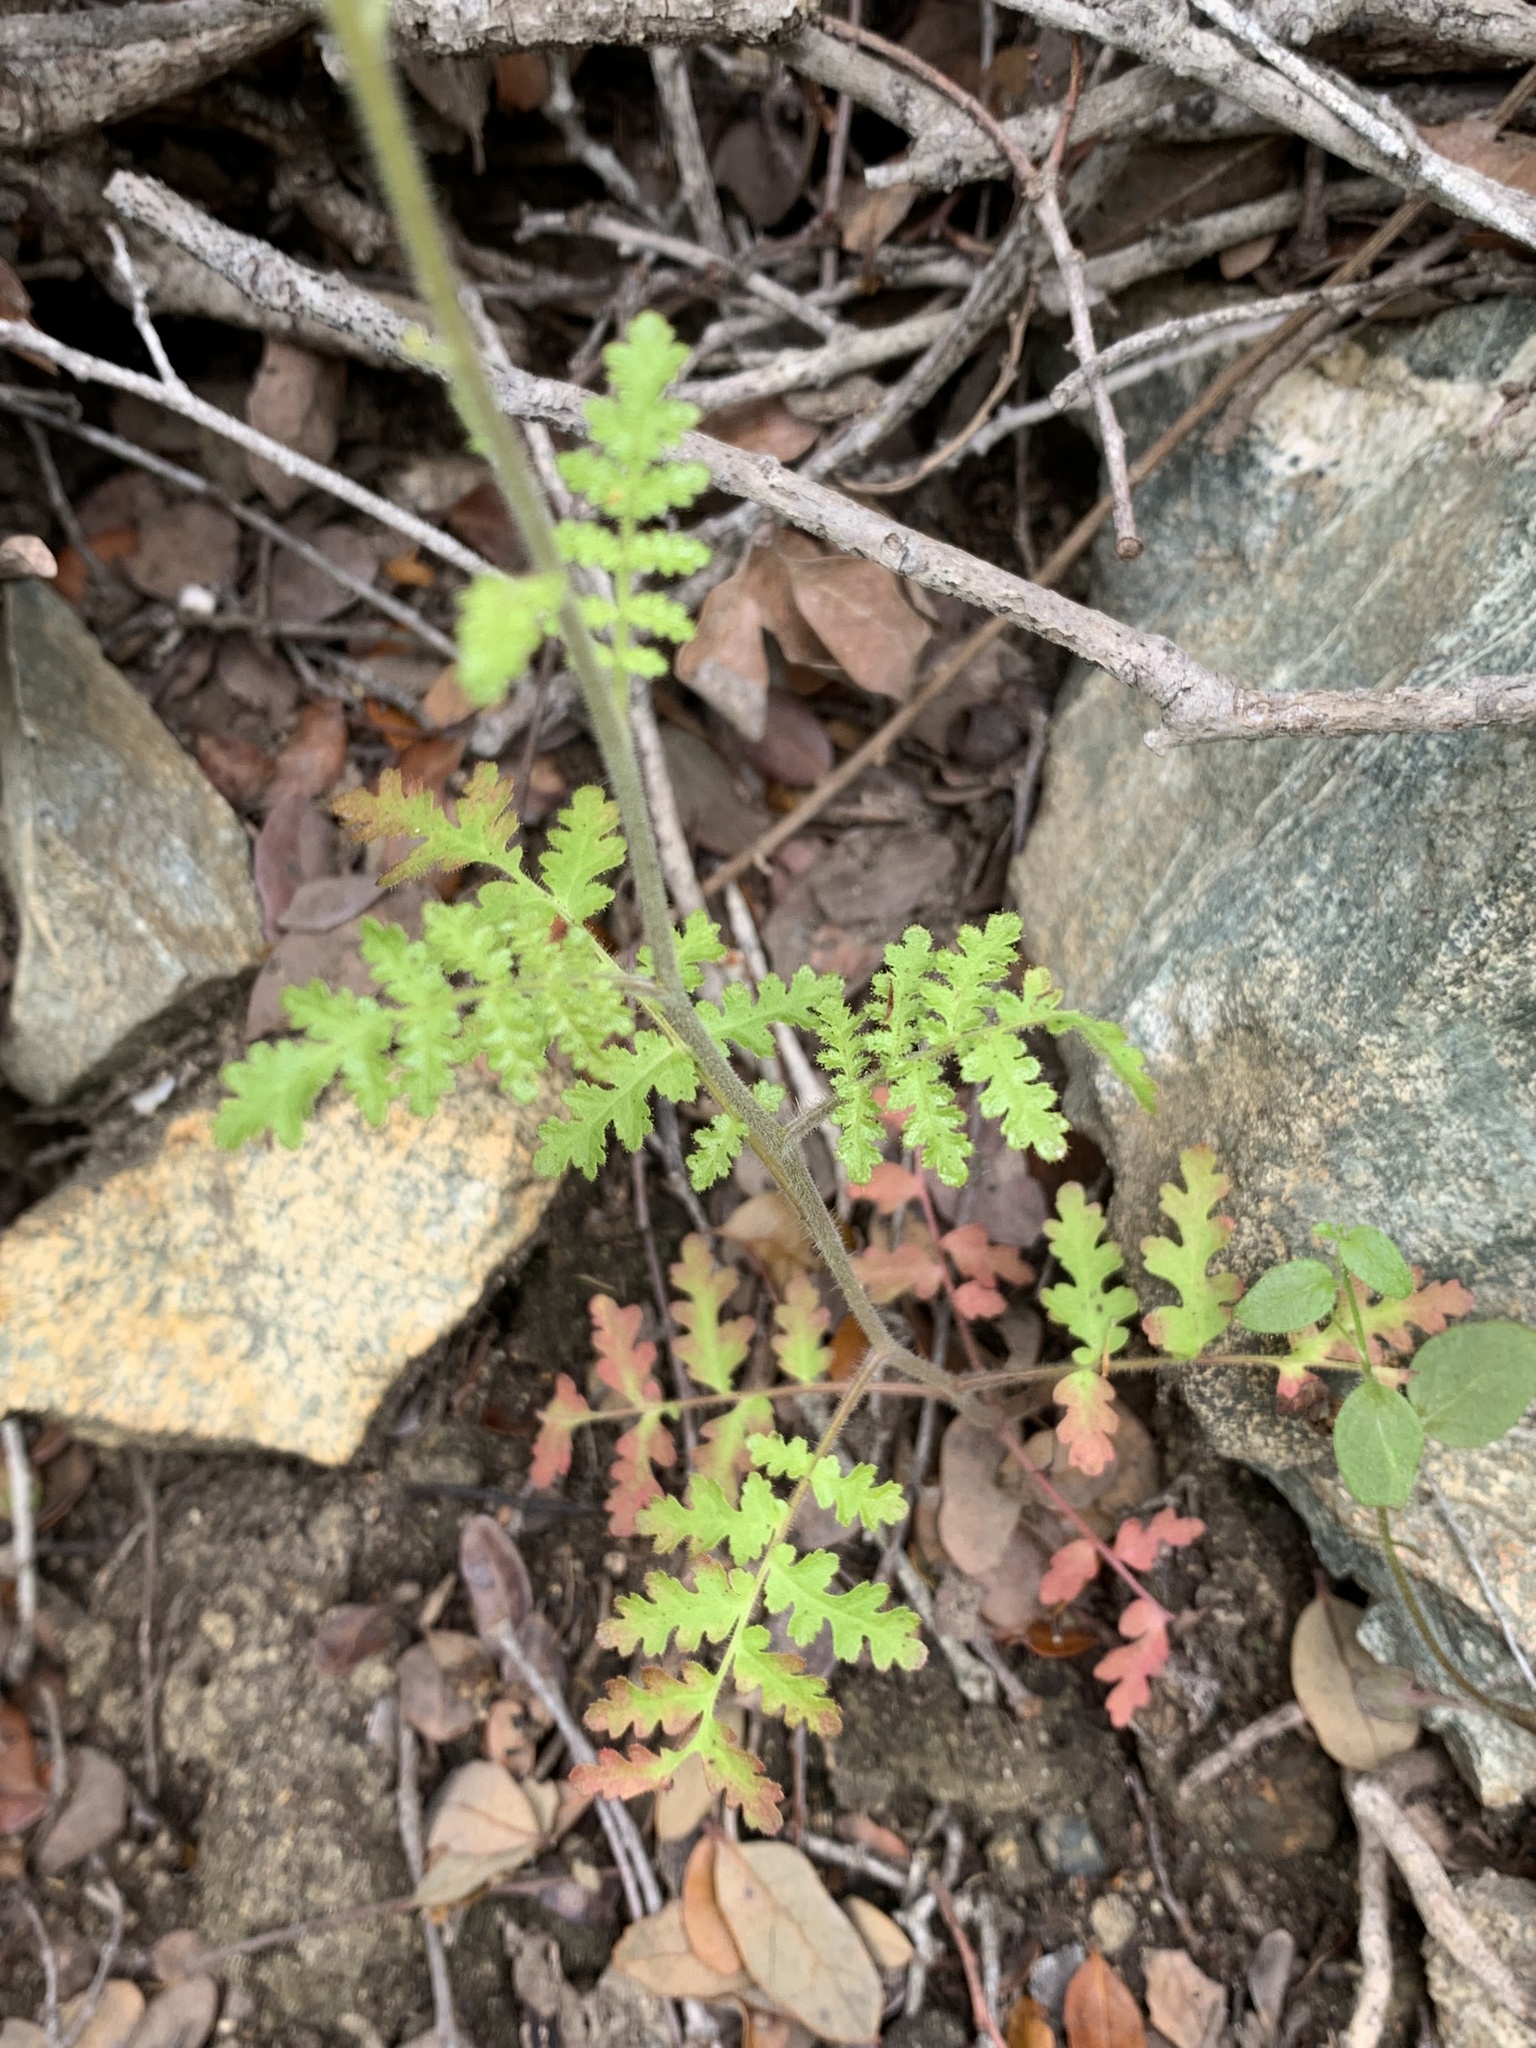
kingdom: Plantae
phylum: Tracheophyta
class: Magnoliopsida
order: Boraginales
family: Hydrophyllaceae
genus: Phacelia
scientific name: Phacelia lyonii
